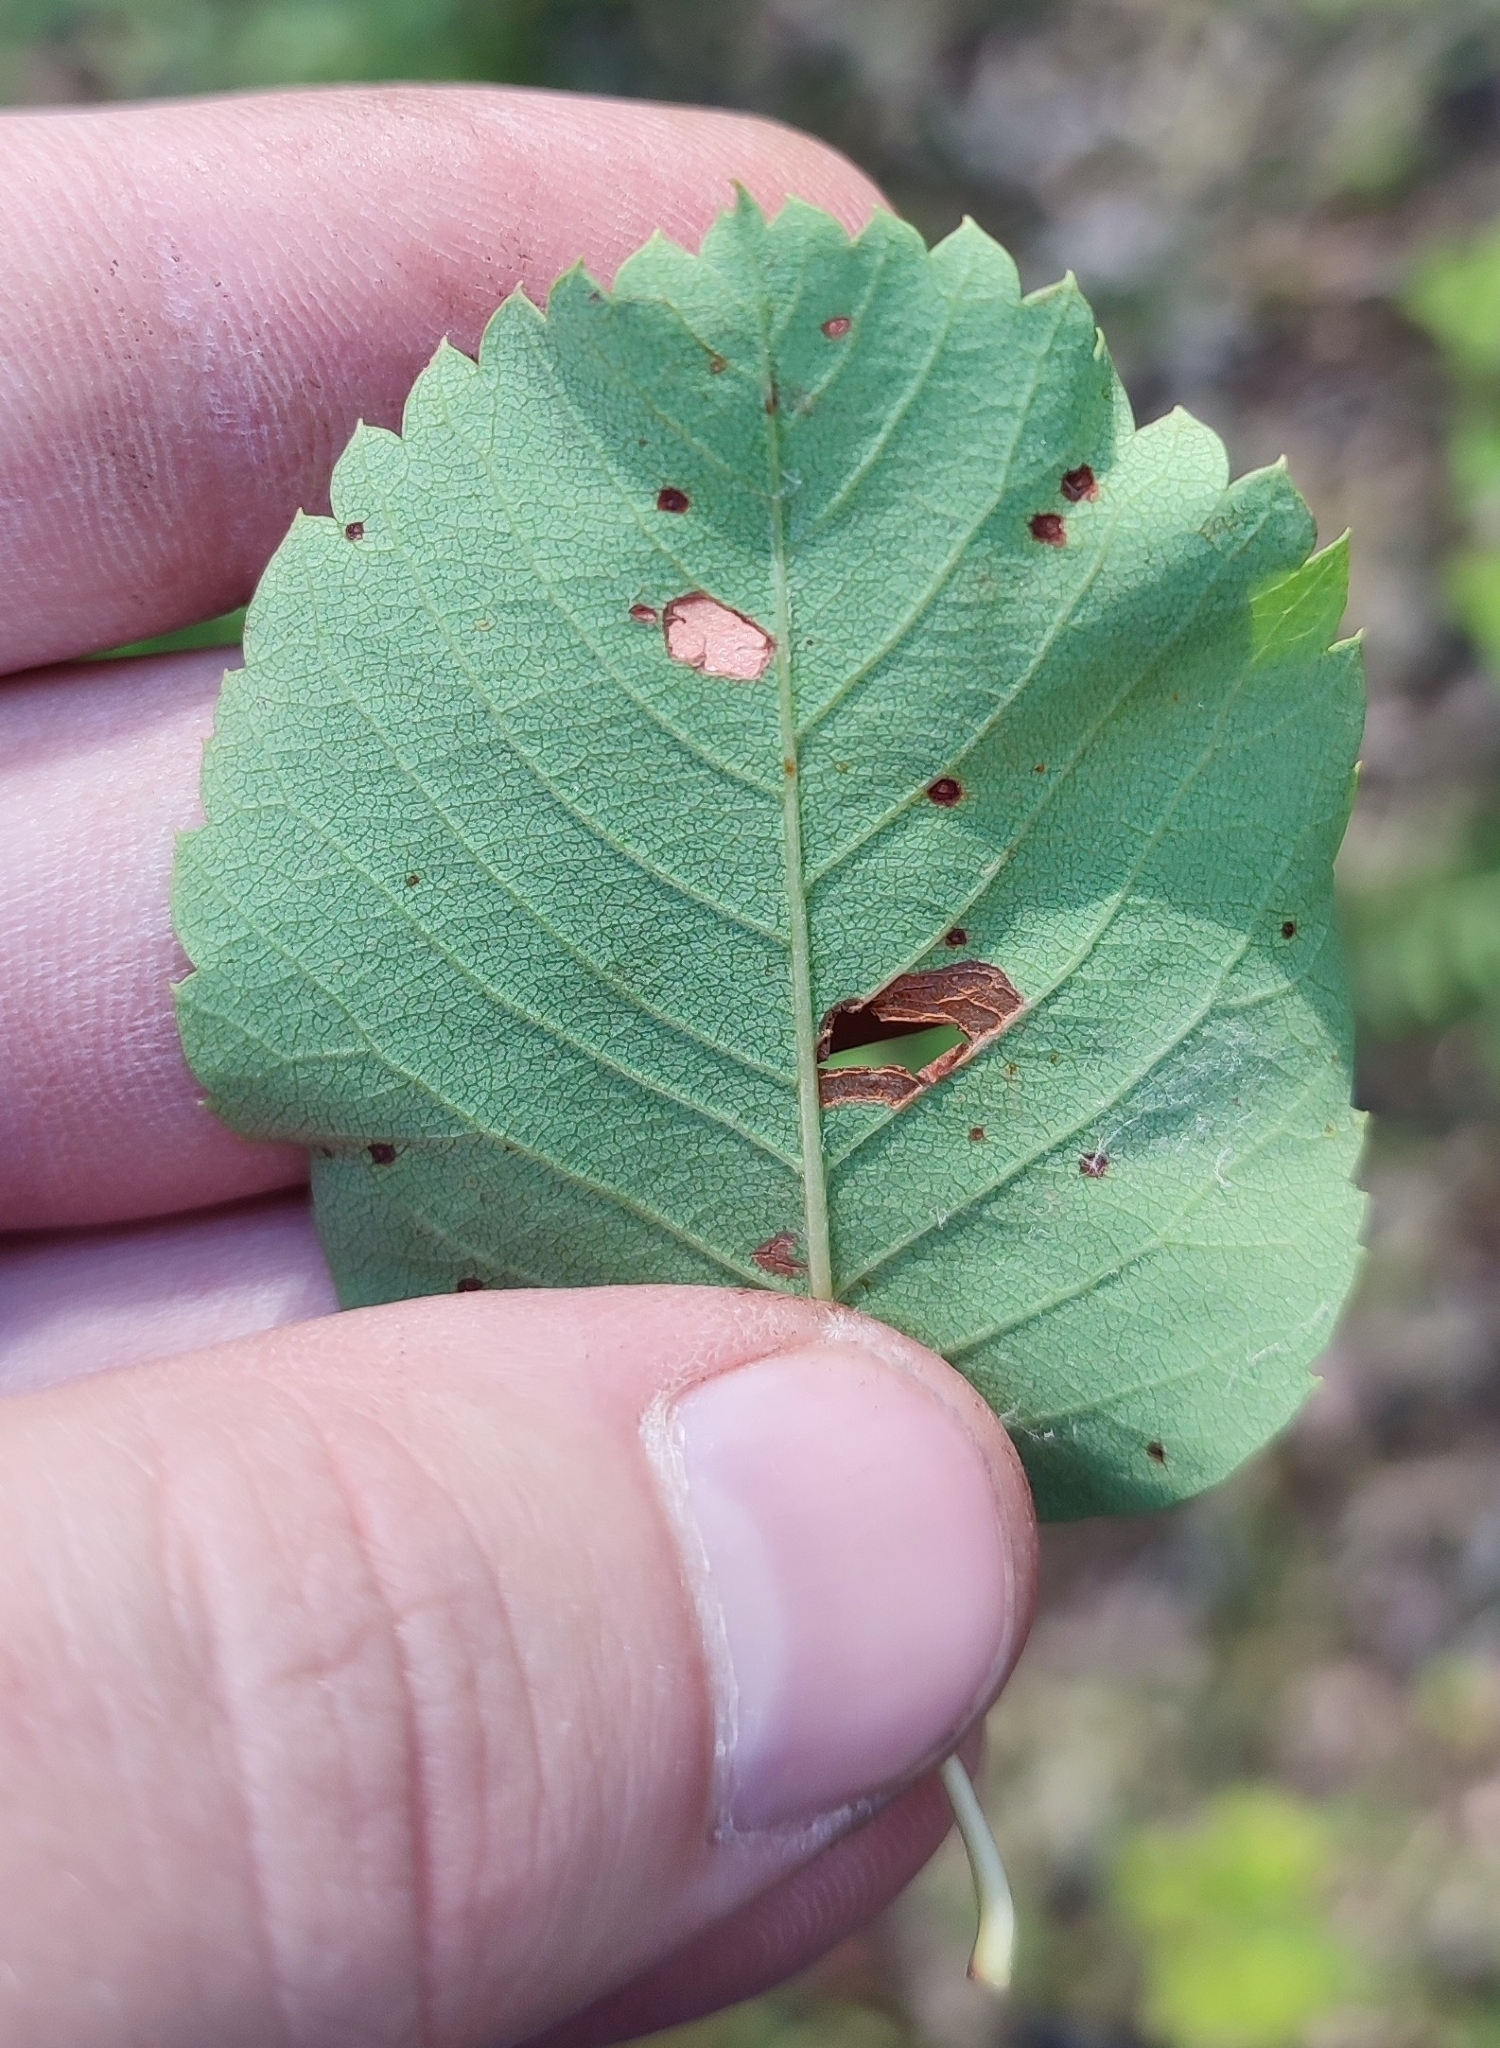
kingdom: Plantae
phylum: Tracheophyta
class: Magnoliopsida
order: Rosales
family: Rosaceae
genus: Amelanchier
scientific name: Amelanchier alnifolia
